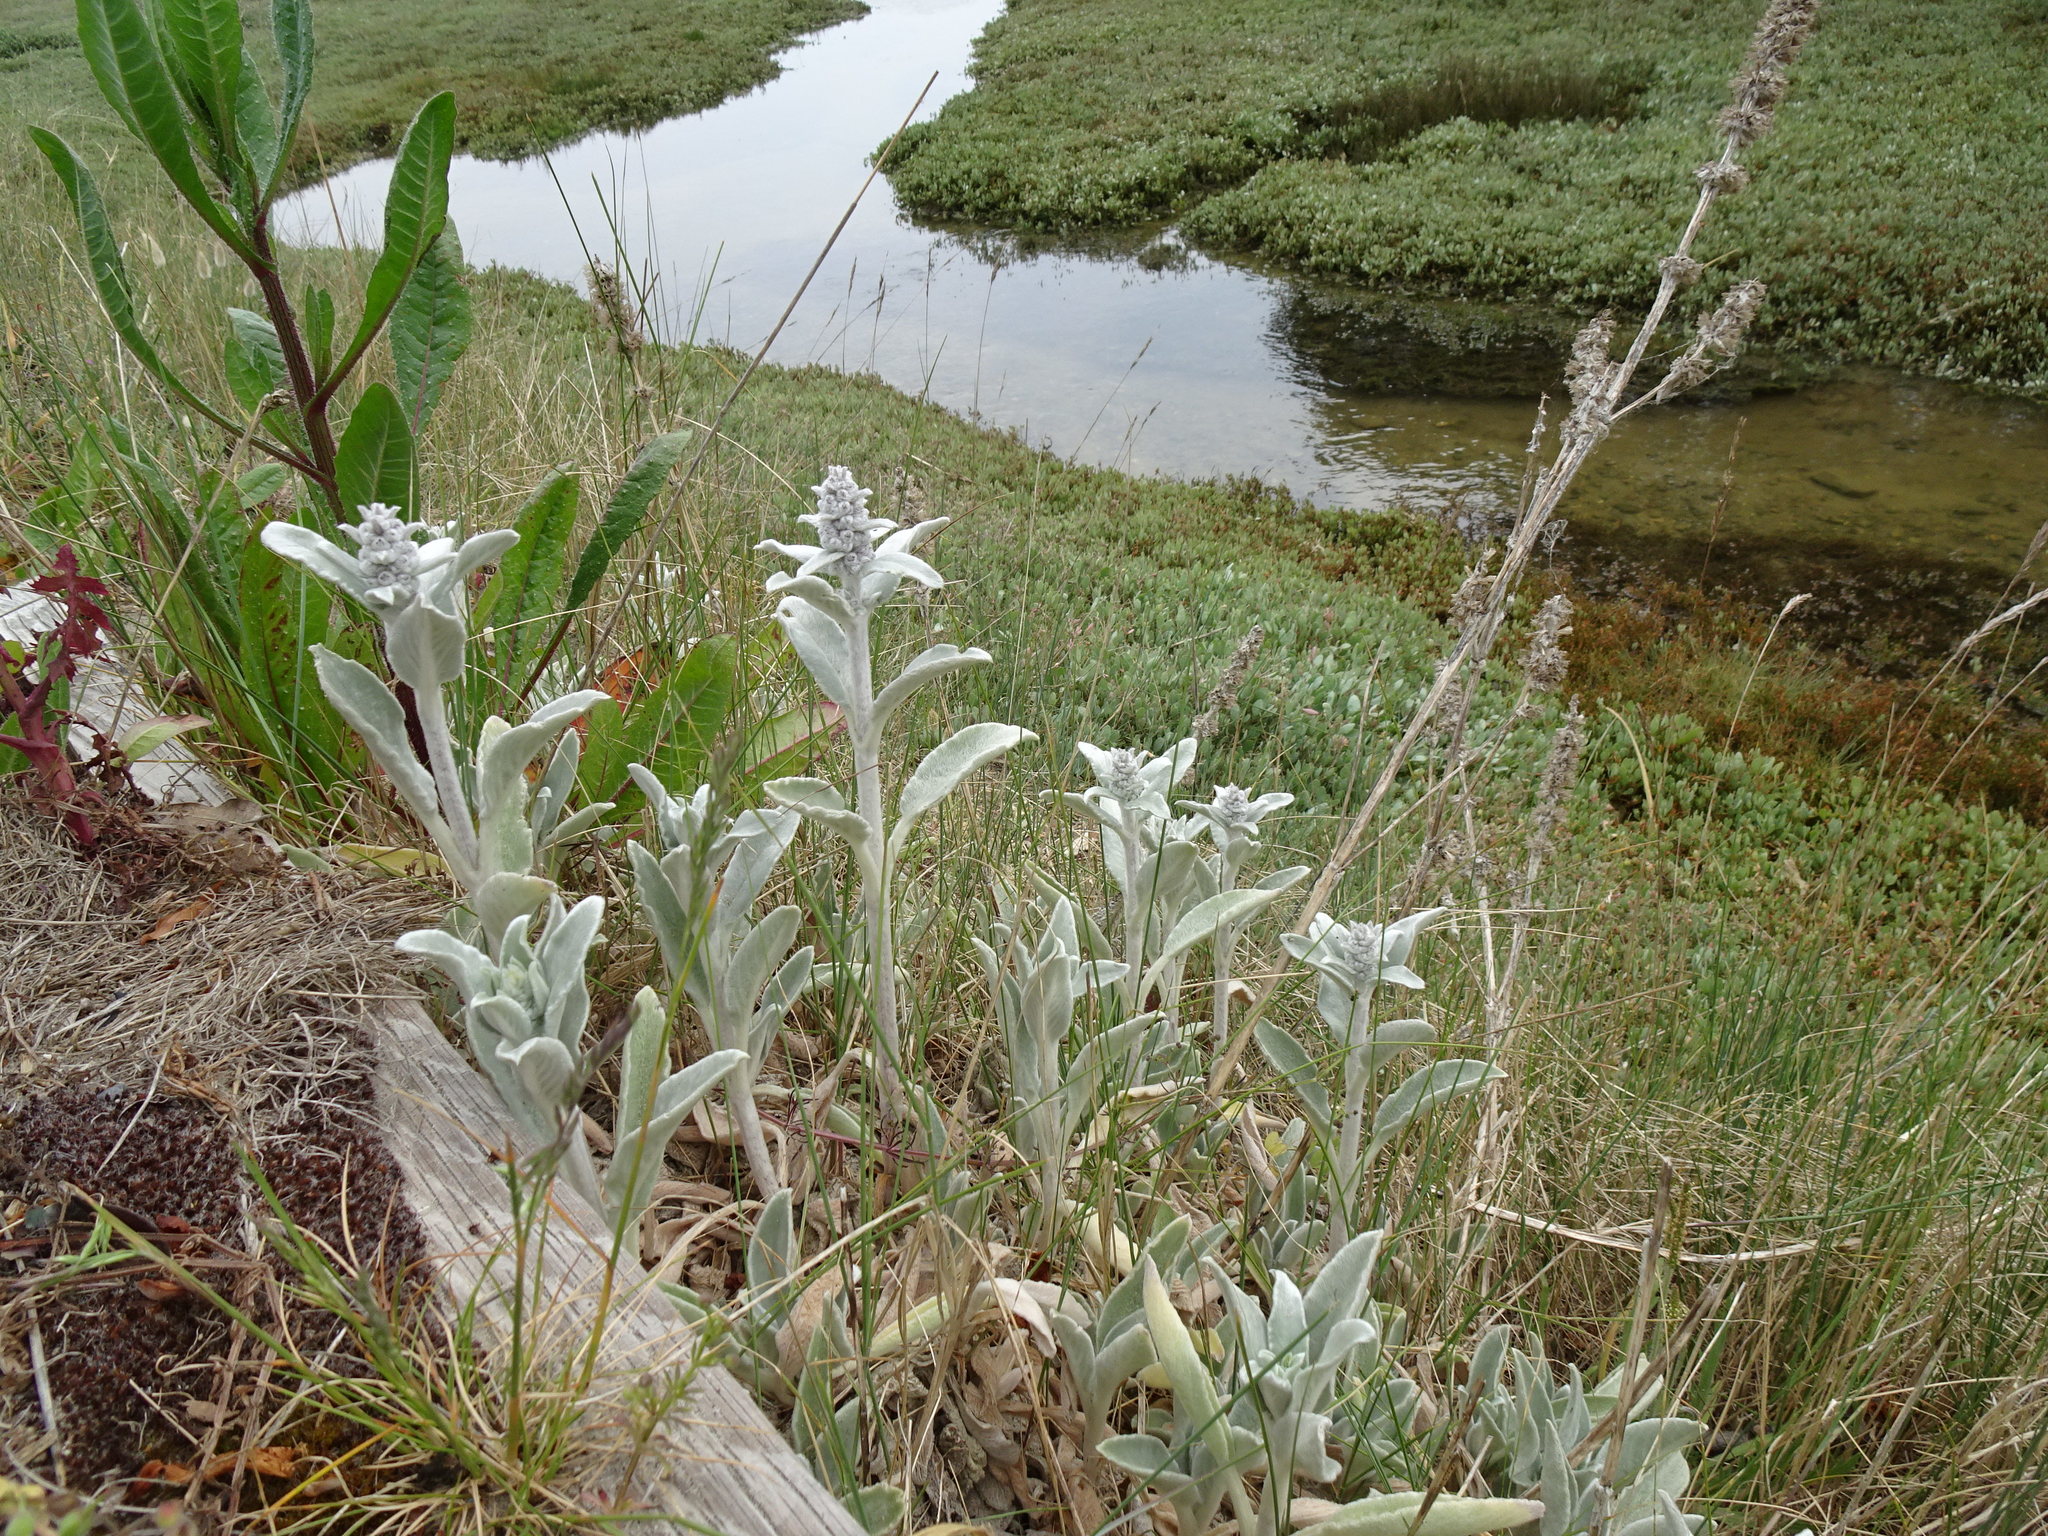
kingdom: Plantae
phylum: Tracheophyta
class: Magnoliopsida
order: Lamiales
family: Lamiaceae
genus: Stachys
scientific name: Stachys byzantina
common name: Lamb's-ear
